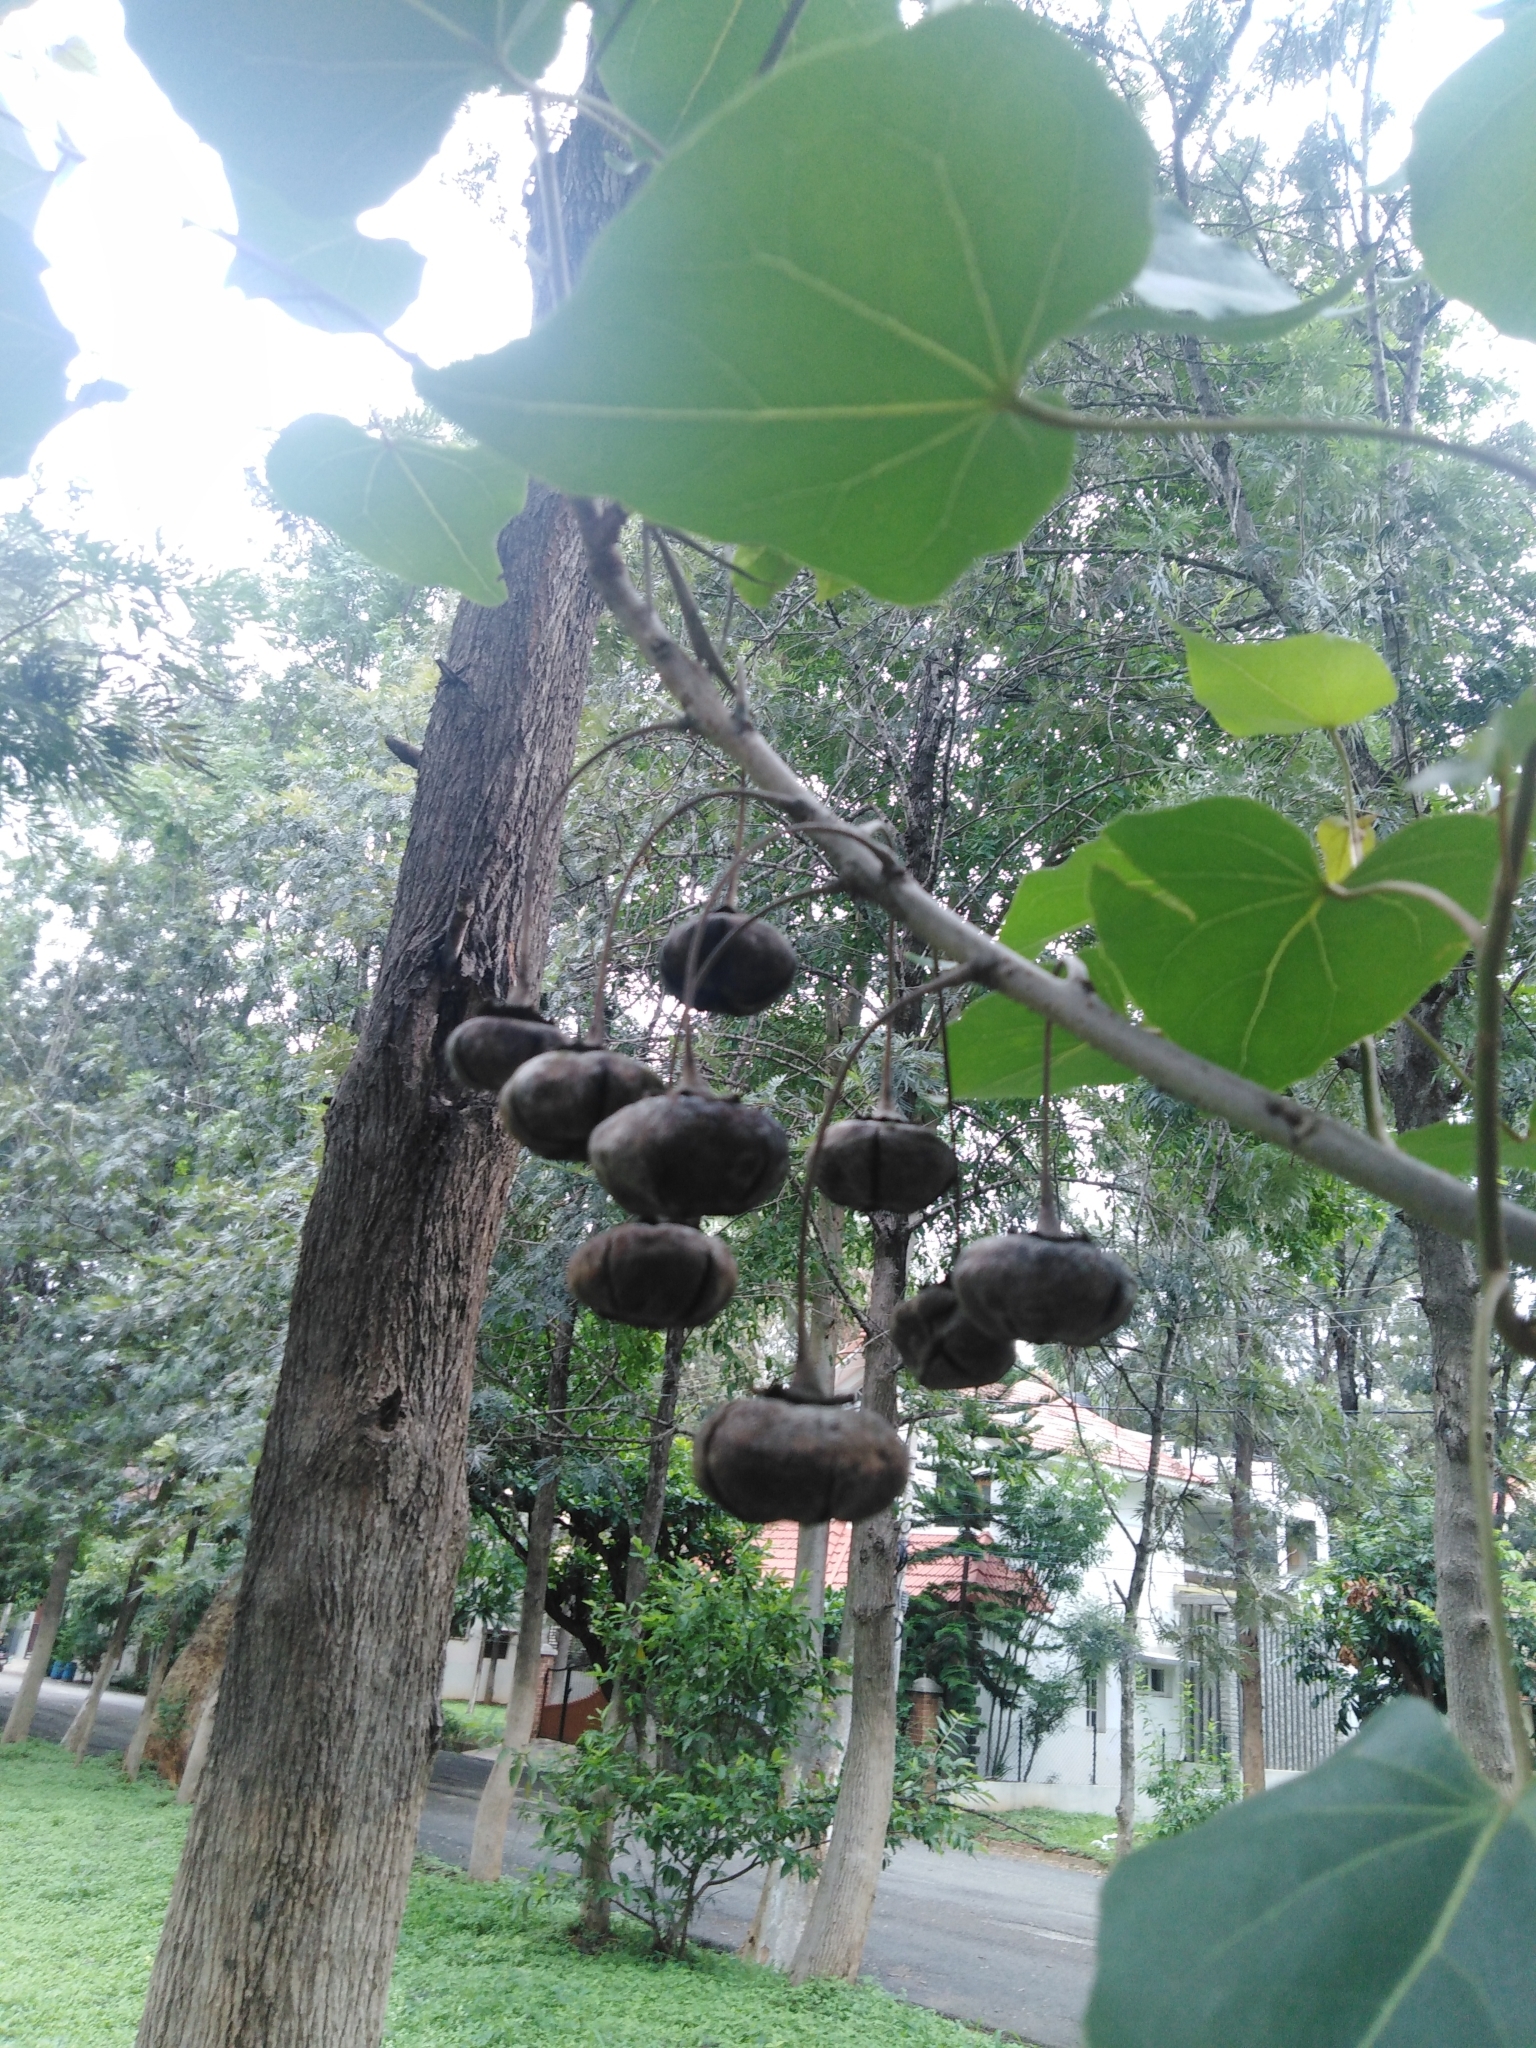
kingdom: Plantae
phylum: Tracheophyta
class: Magnoliopsida
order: Malvales
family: Malvaceae
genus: Thespesia
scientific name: Thespesia populnea
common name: Seaside mahoe
